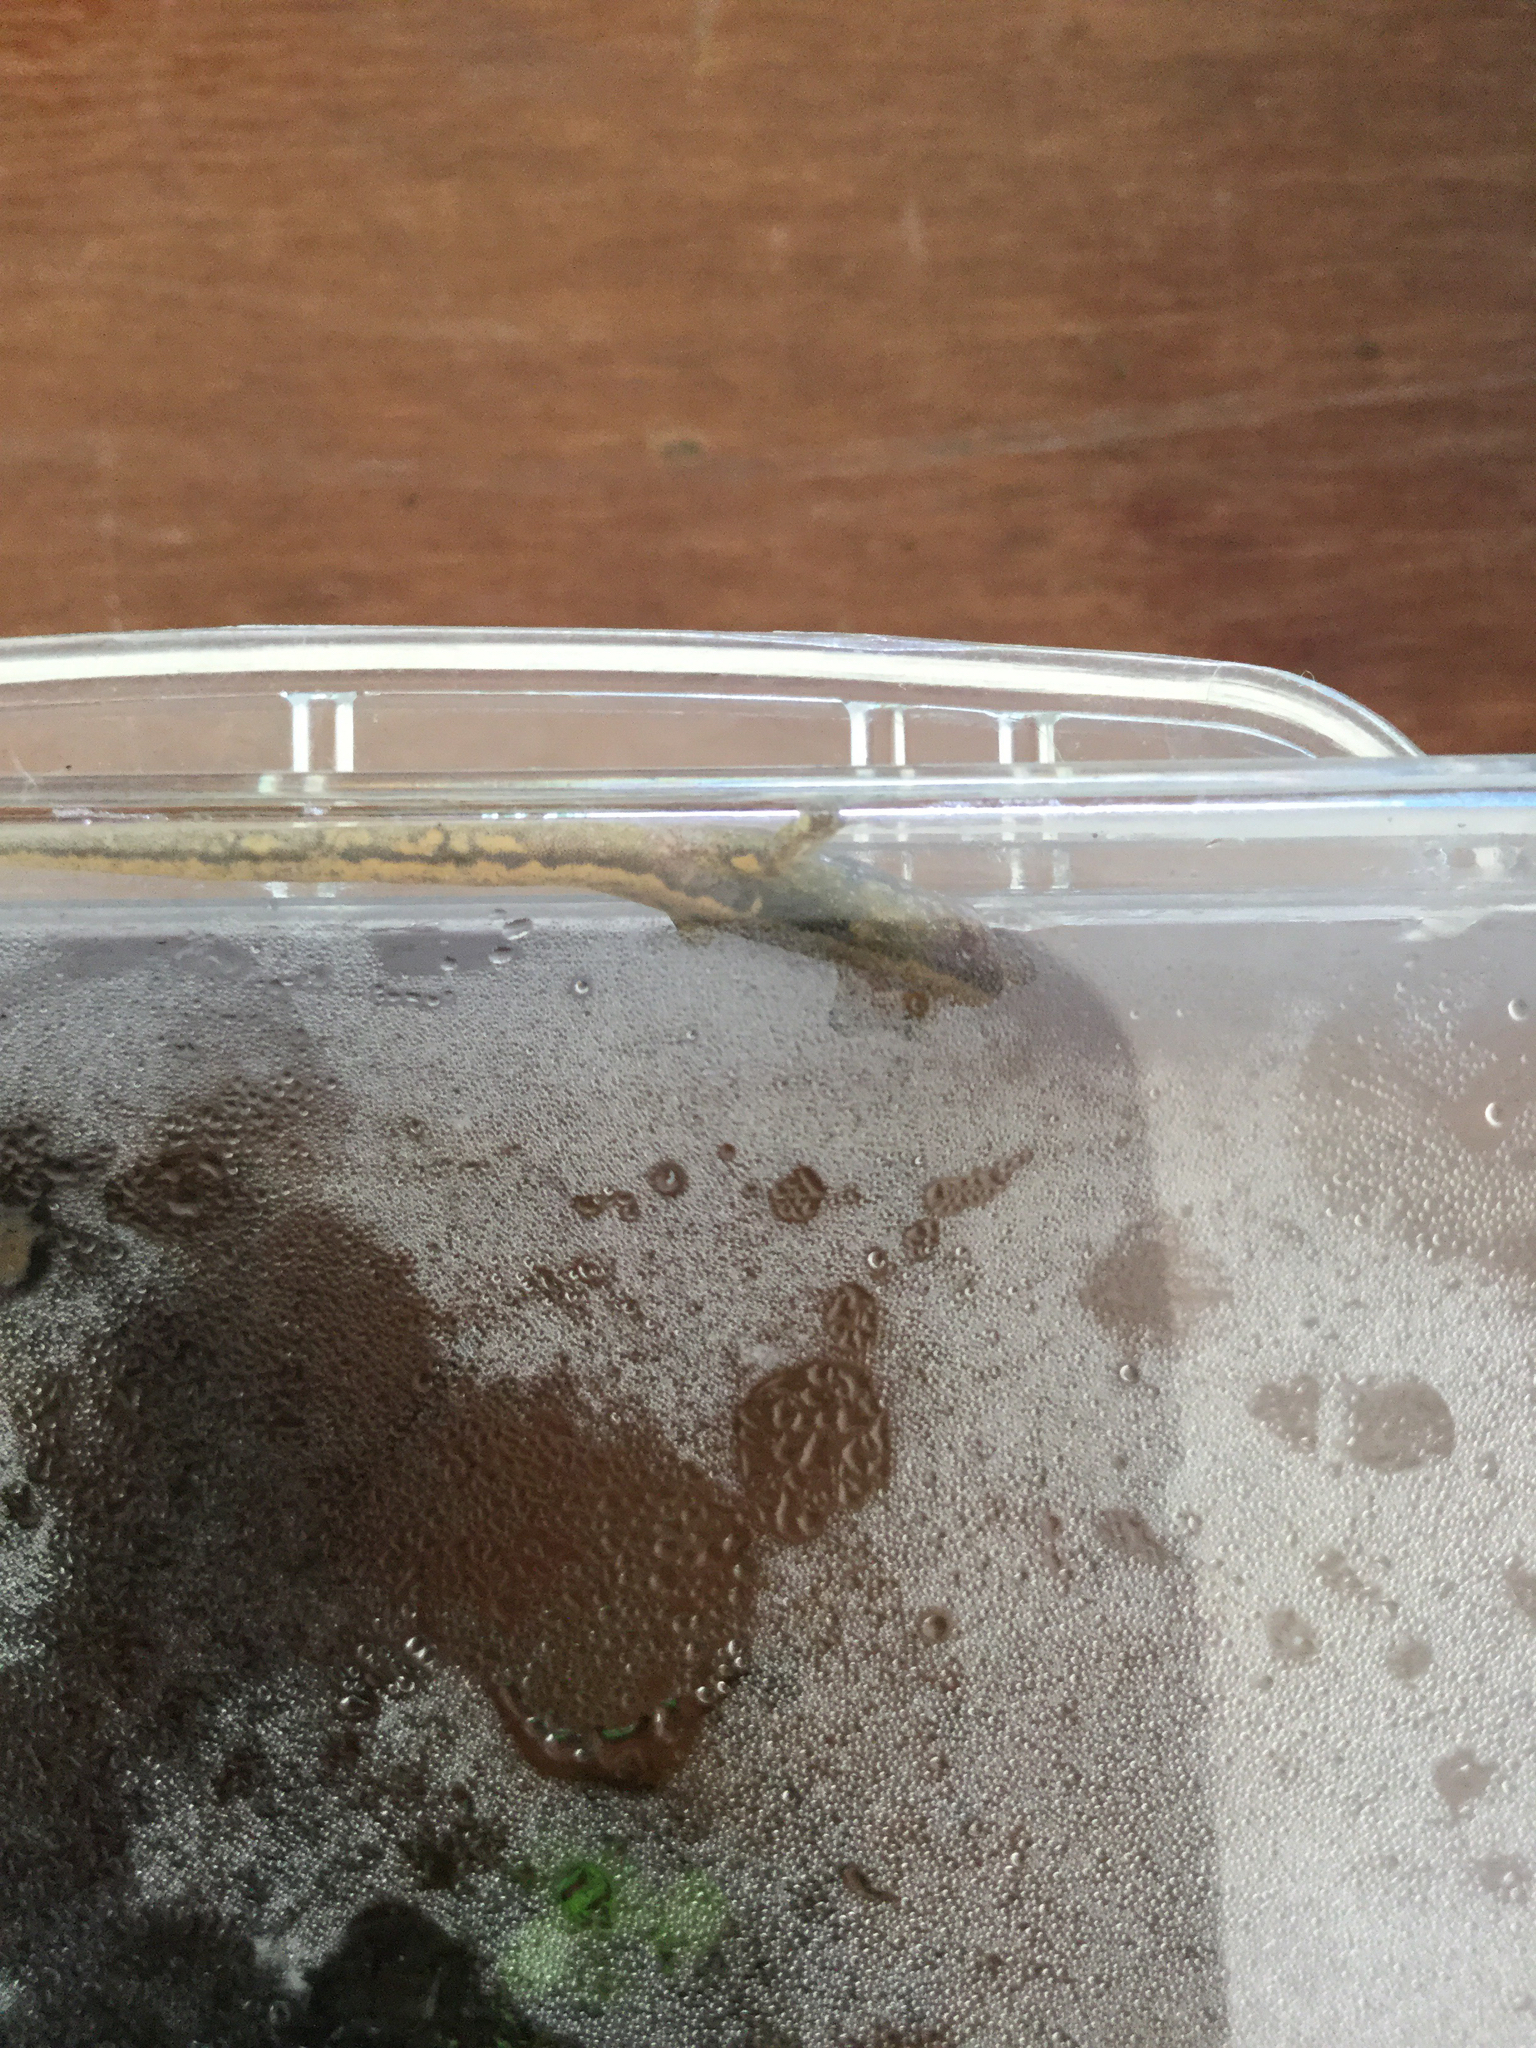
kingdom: Animalia
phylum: Chordata
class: Amphibia
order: Caudata
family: Plethodontidae
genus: Eurycea
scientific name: Eurycea bislineata
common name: Northern two-lined salamander
